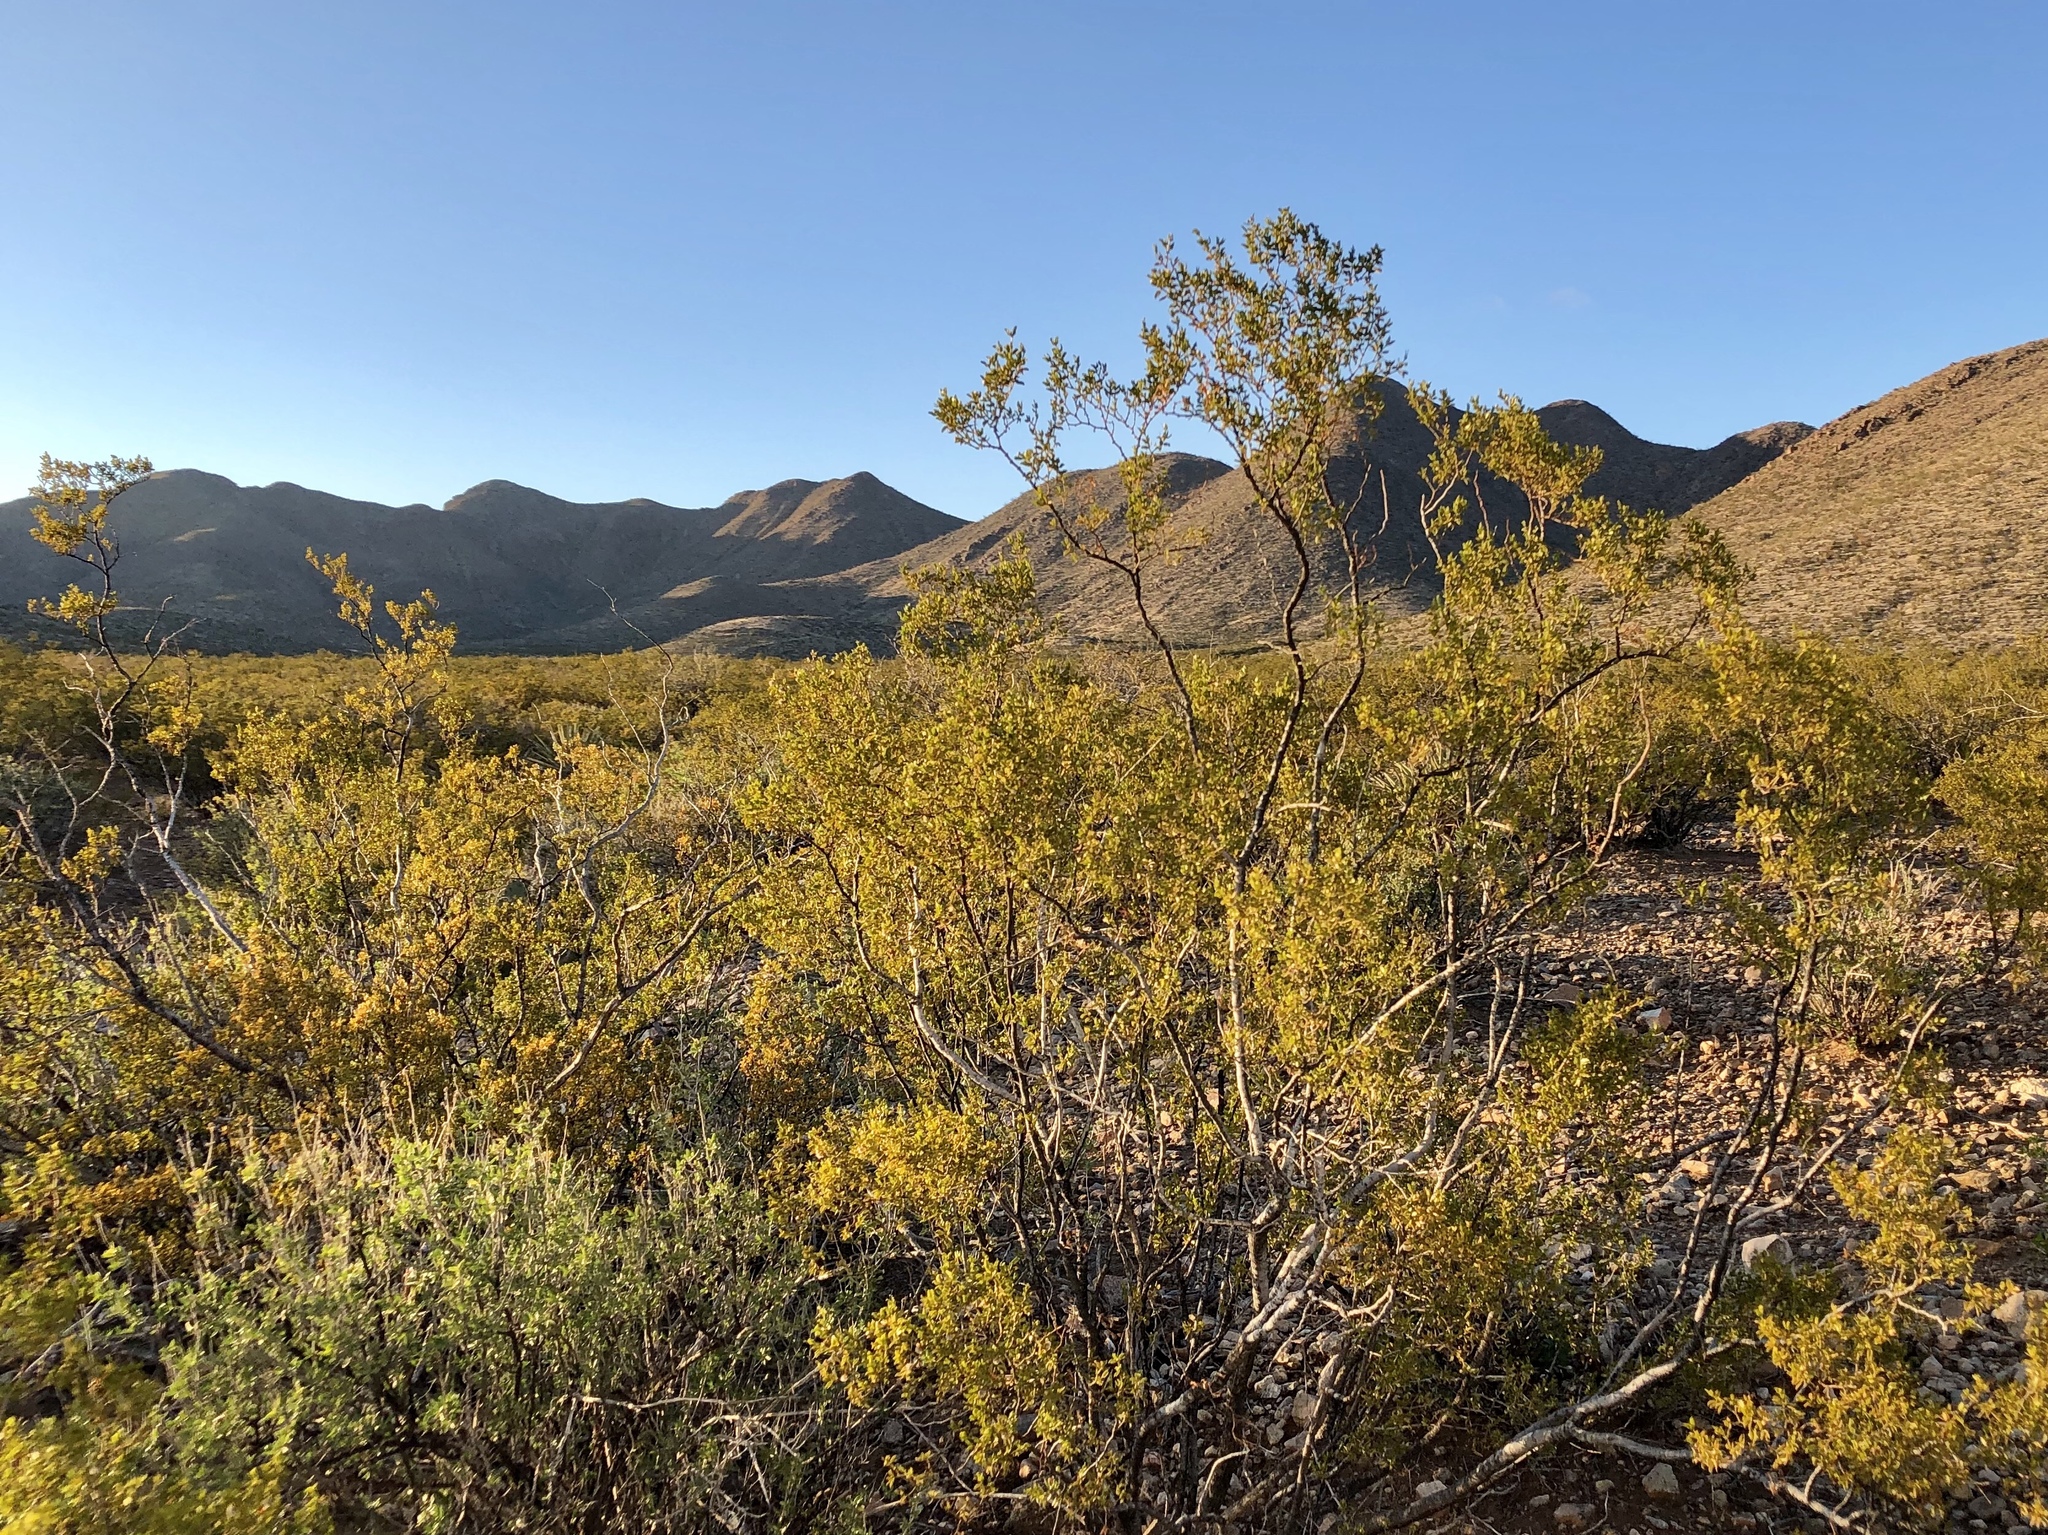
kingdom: Plantae
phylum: Tracheophyta
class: Magnoliopsida
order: Zygophyllales
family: Zygophyllaceae
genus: Larrea
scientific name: Larrea tridentata
